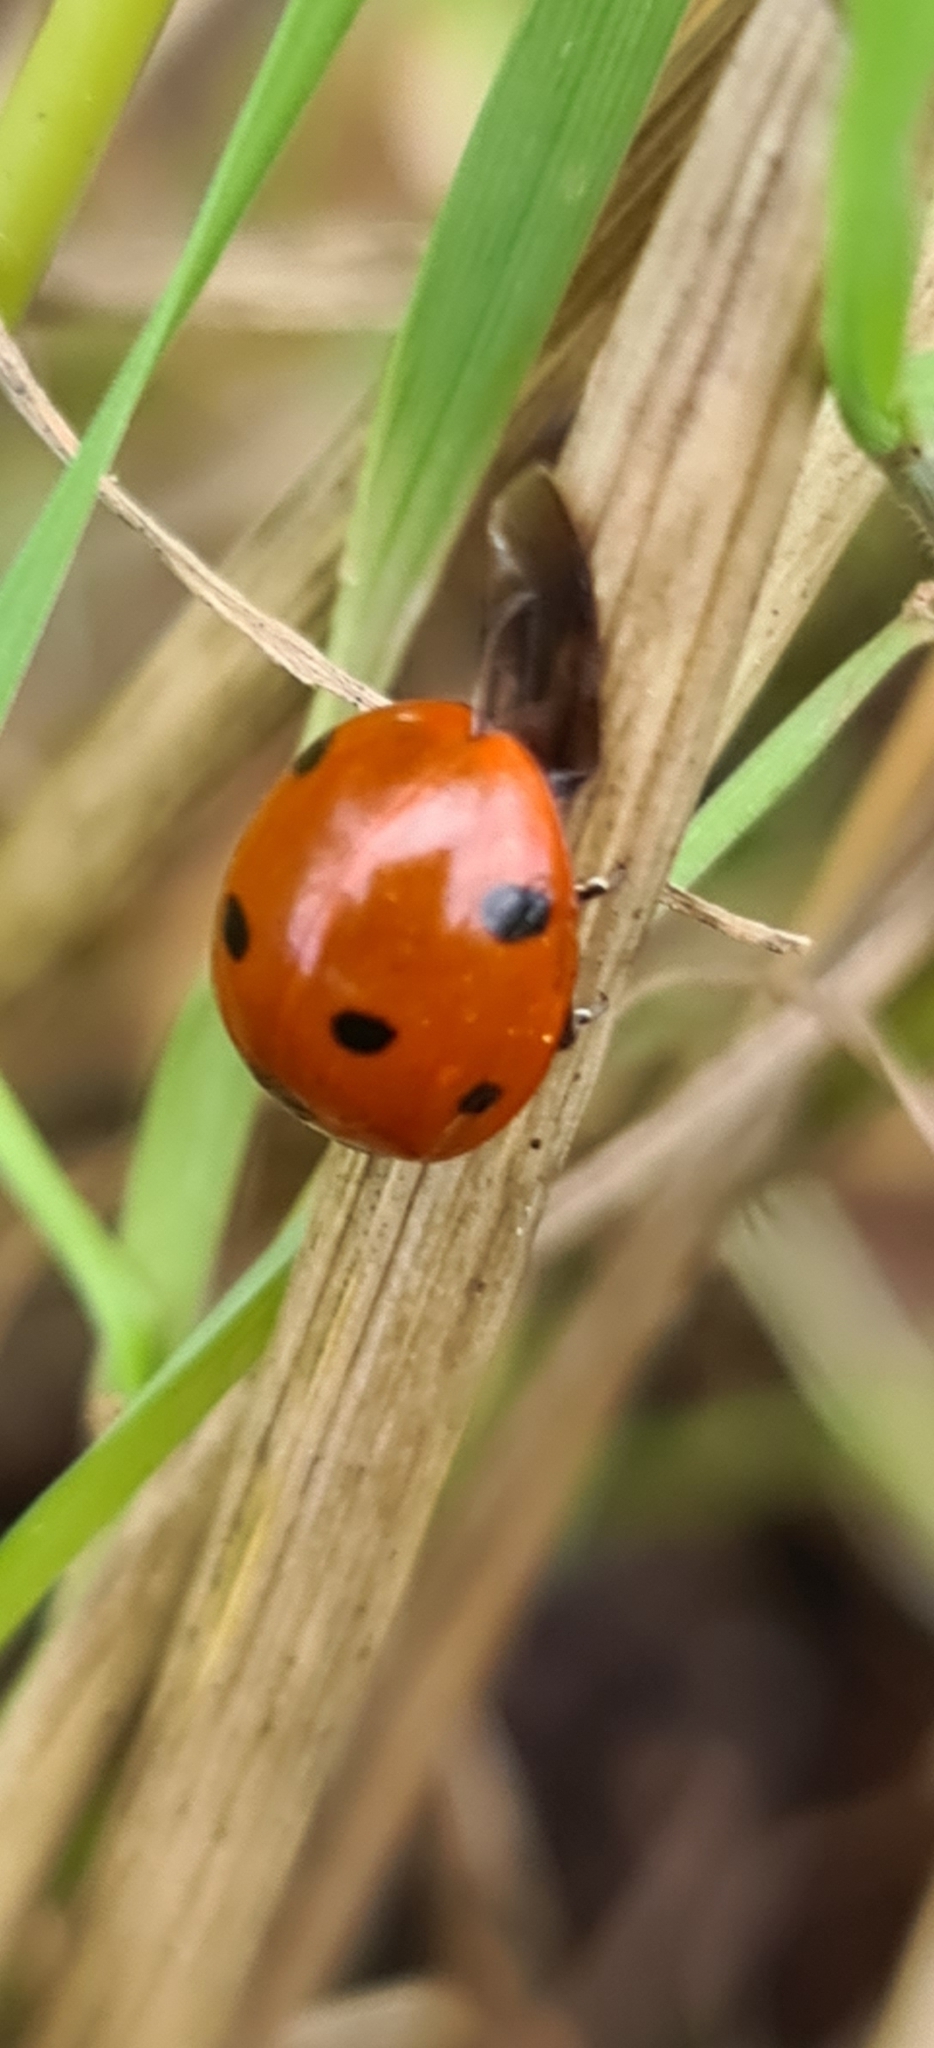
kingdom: Animalia
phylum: Arthropoda
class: Insecta
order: Coleoptera
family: Coccinellidae
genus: Coccinella
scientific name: Coccinella septempunctata
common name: Sevenspotted lady beetle
